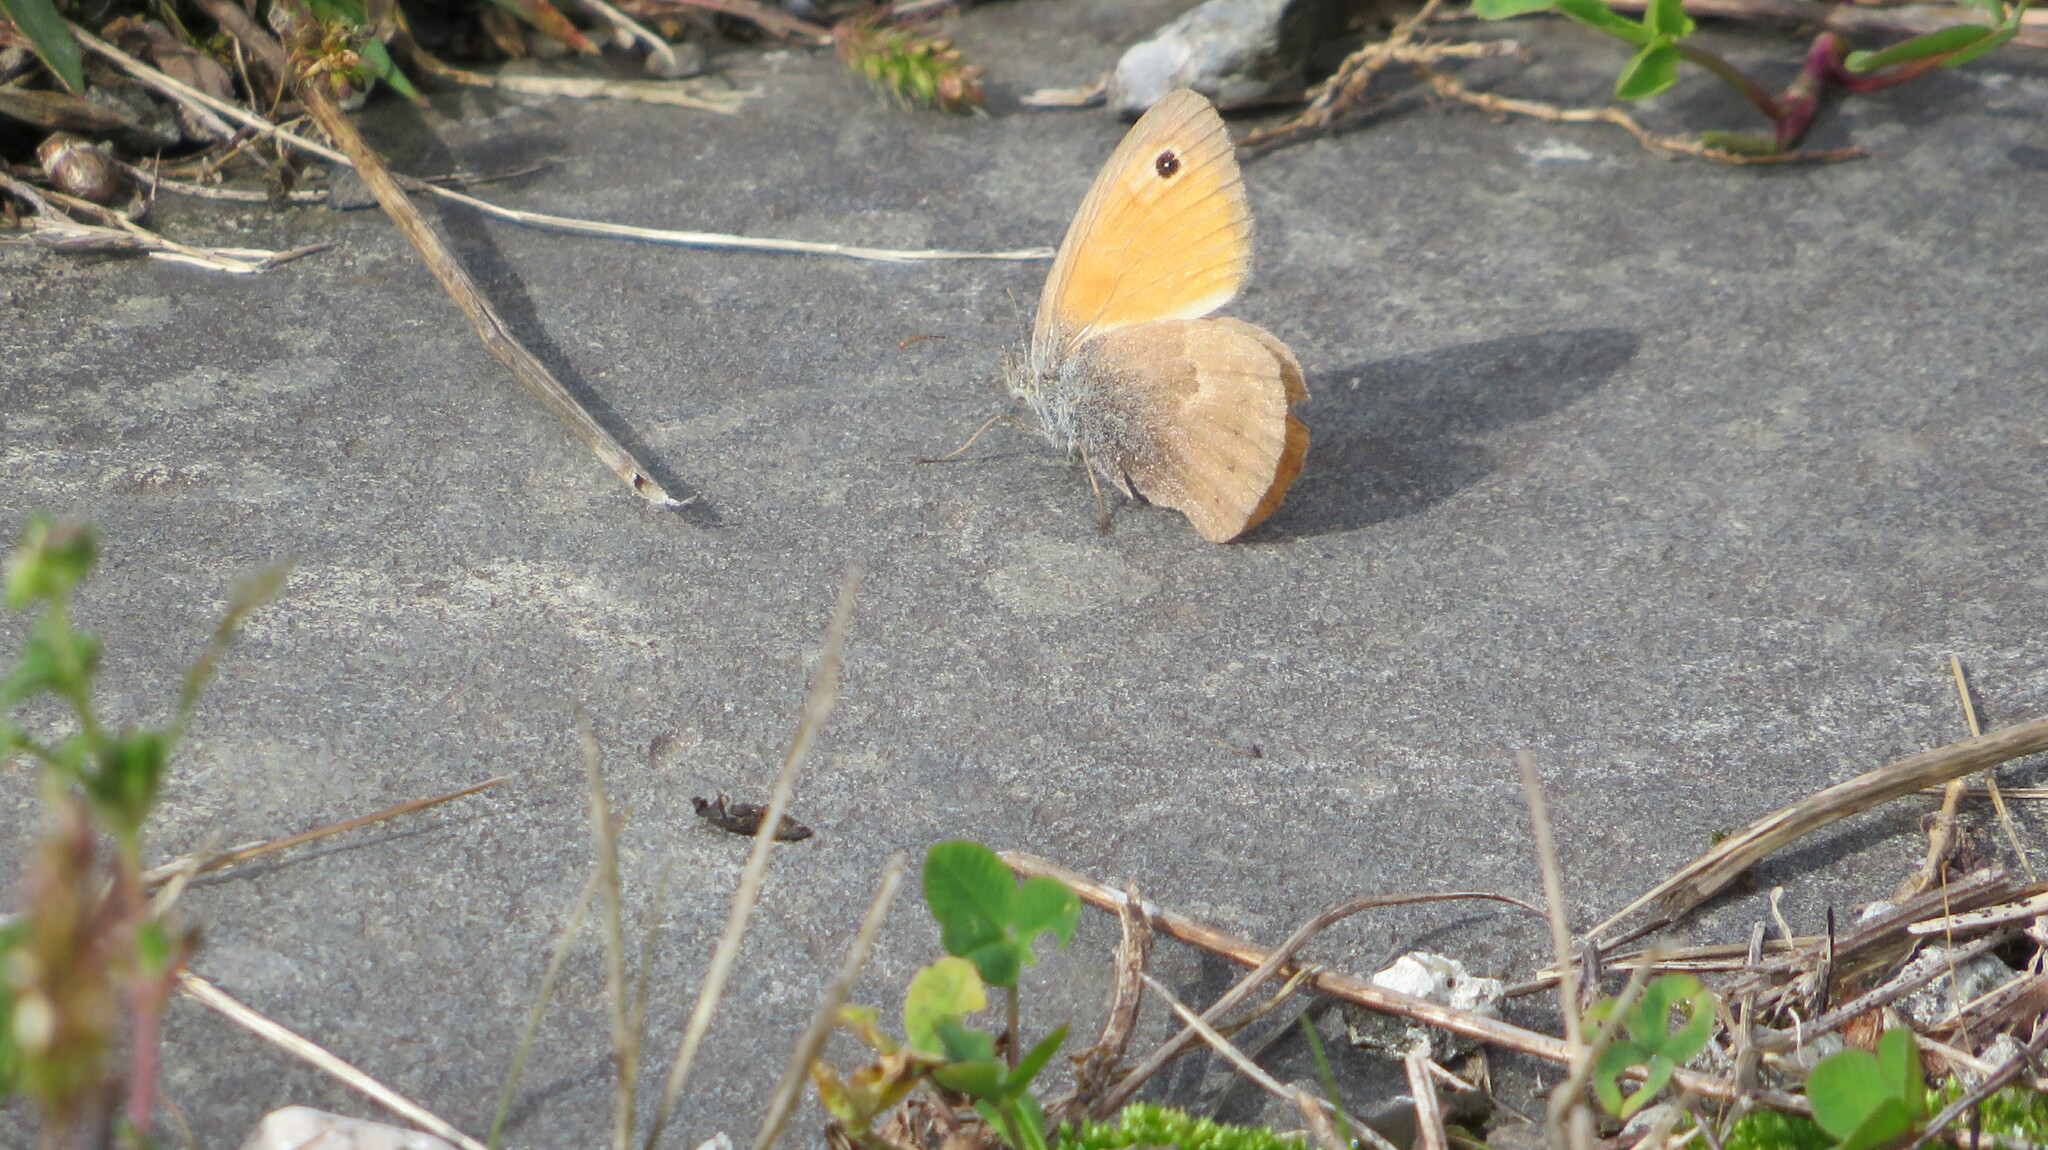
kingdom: Animalia
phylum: Arthropoda
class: Insecta
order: Lepidoptera
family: Nymphalidae
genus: Coenonympha
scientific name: Coenonympha pamphilus
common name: Small heath
